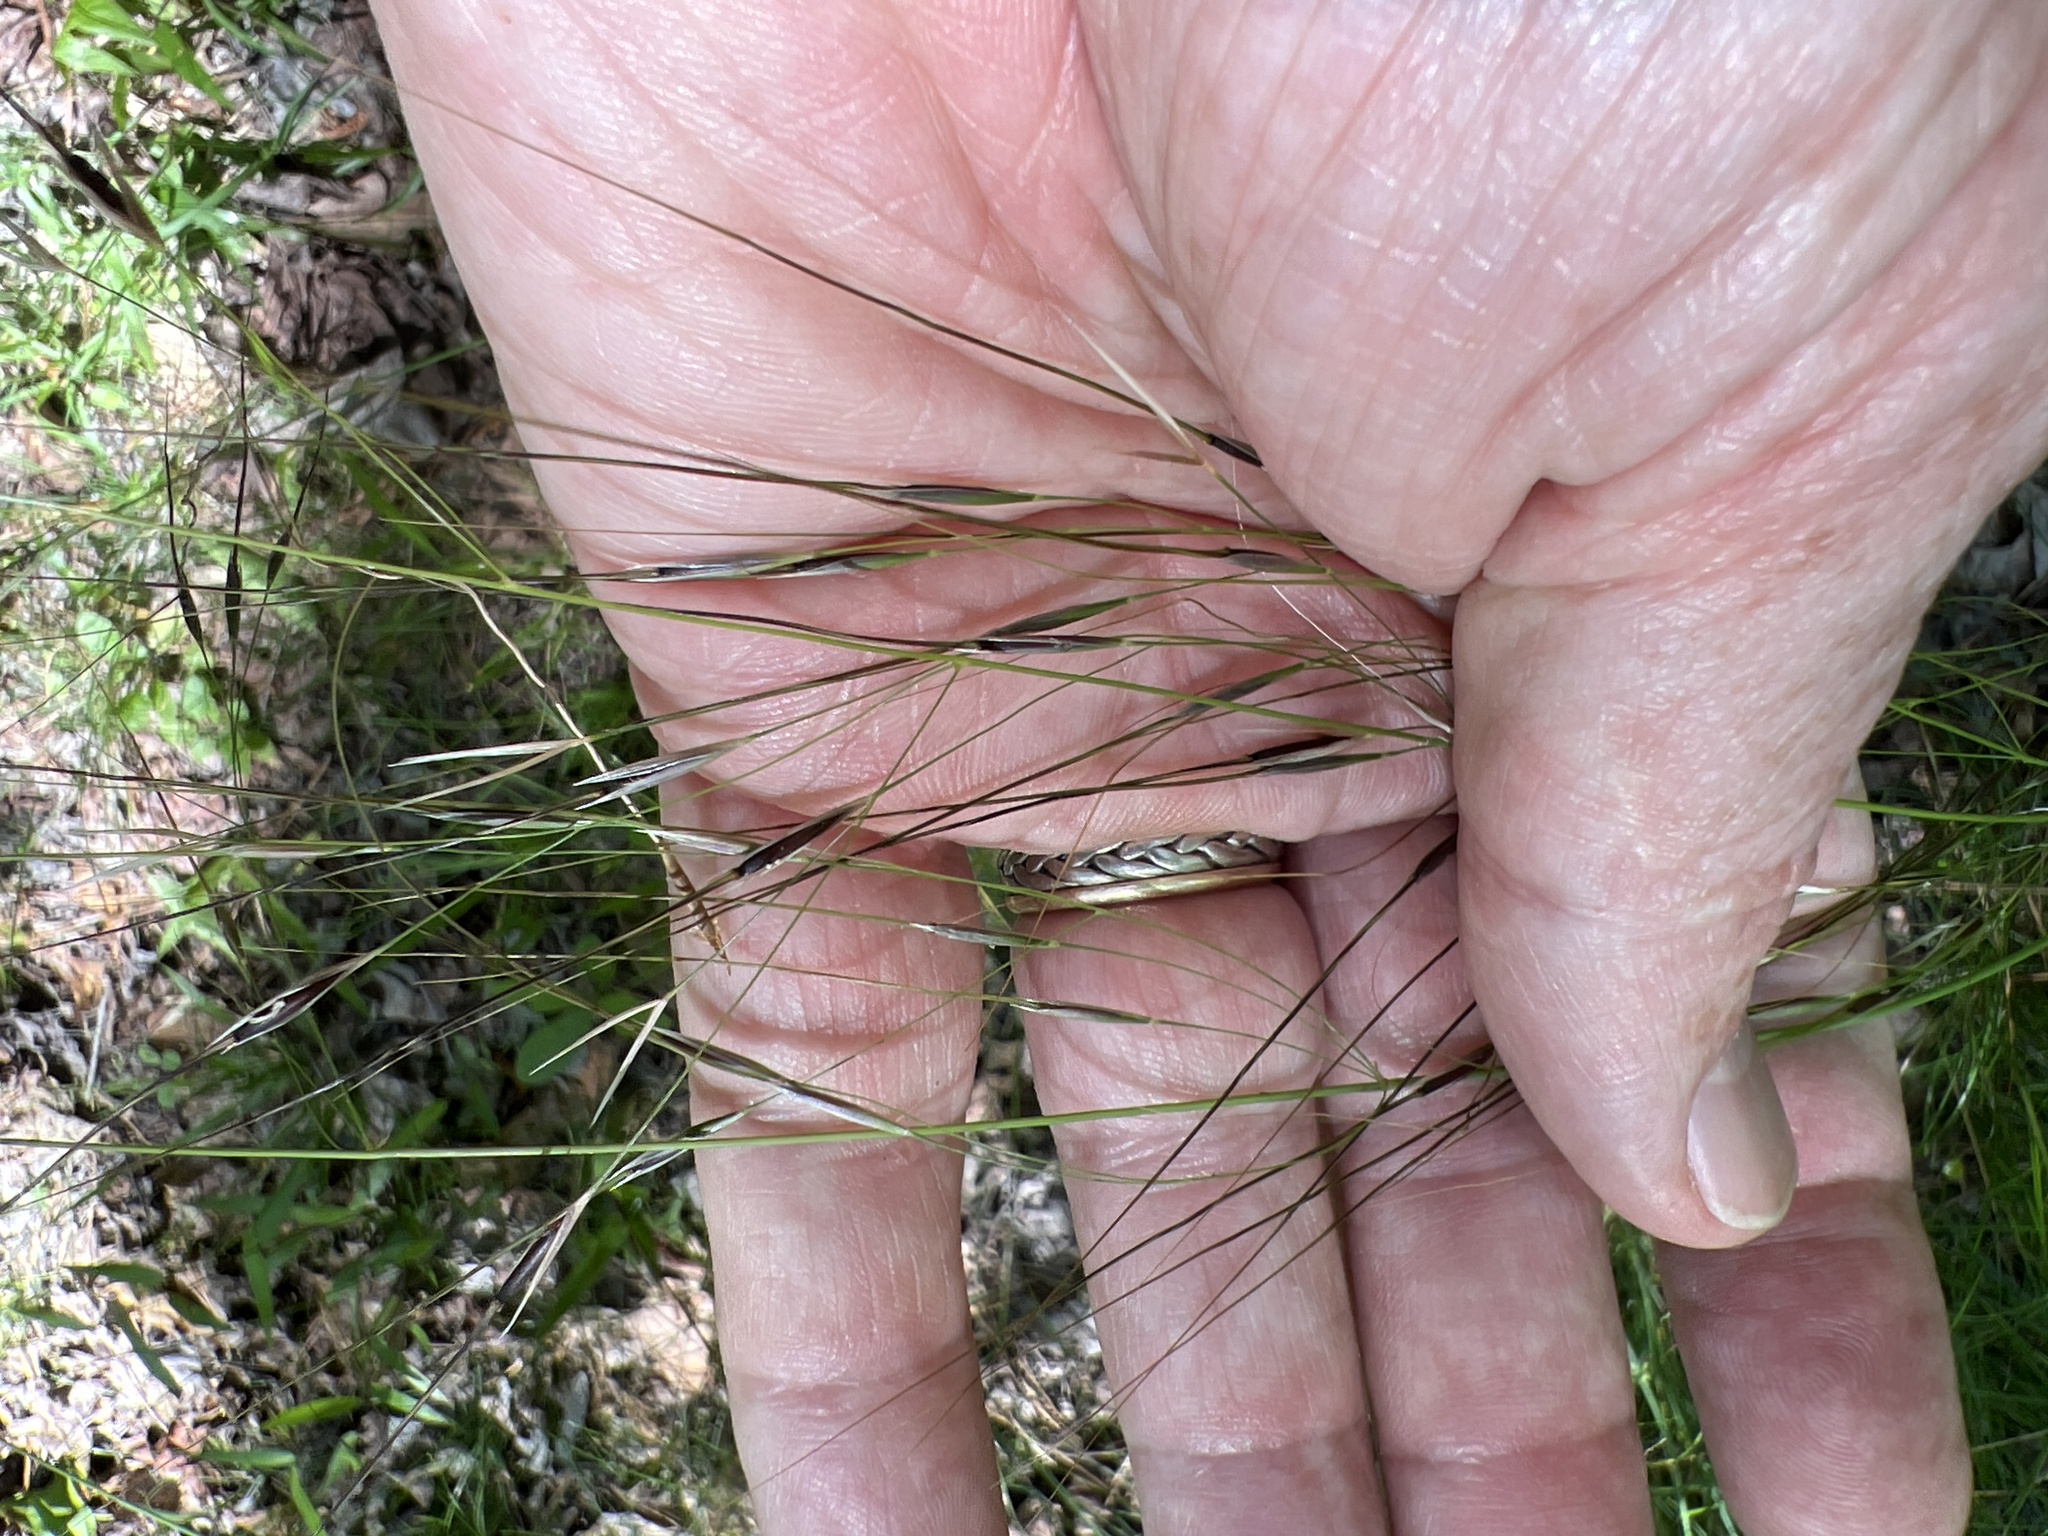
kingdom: Plantae
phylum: Tracheophyta
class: Liliopsida
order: Poales
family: Poaceae
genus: Piptochaetium
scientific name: Piptochaetium avenaceum
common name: Black bunchgrass
